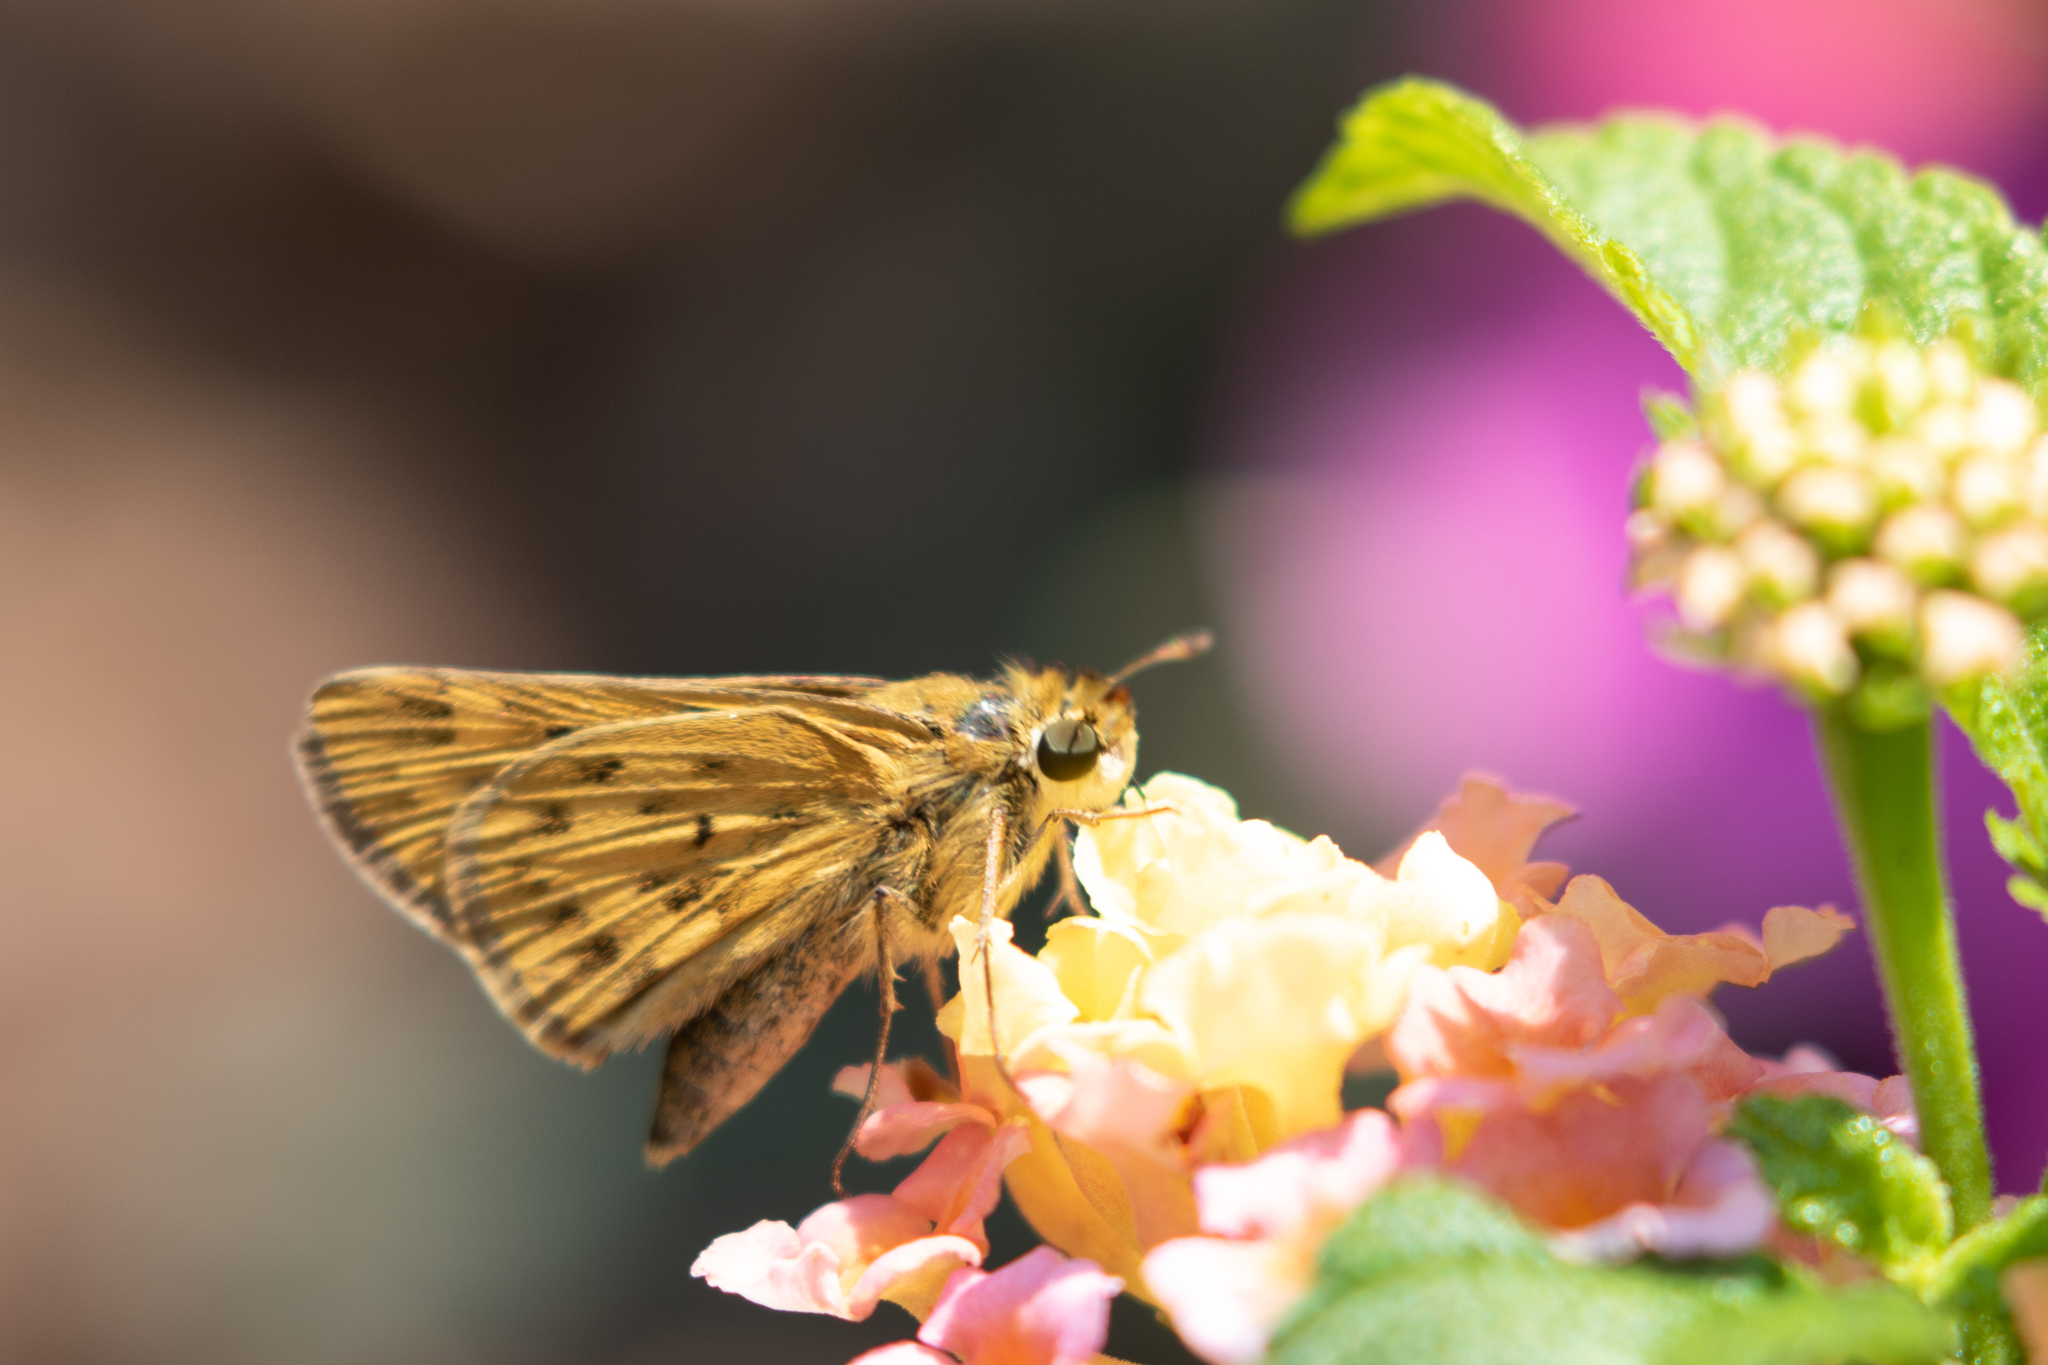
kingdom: Animalia
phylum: Arthropoda
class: Insecta
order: Lepidoptera
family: Hesperiidae
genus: Hylephila
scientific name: Hylephila phyleus
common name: Fiery skipper
